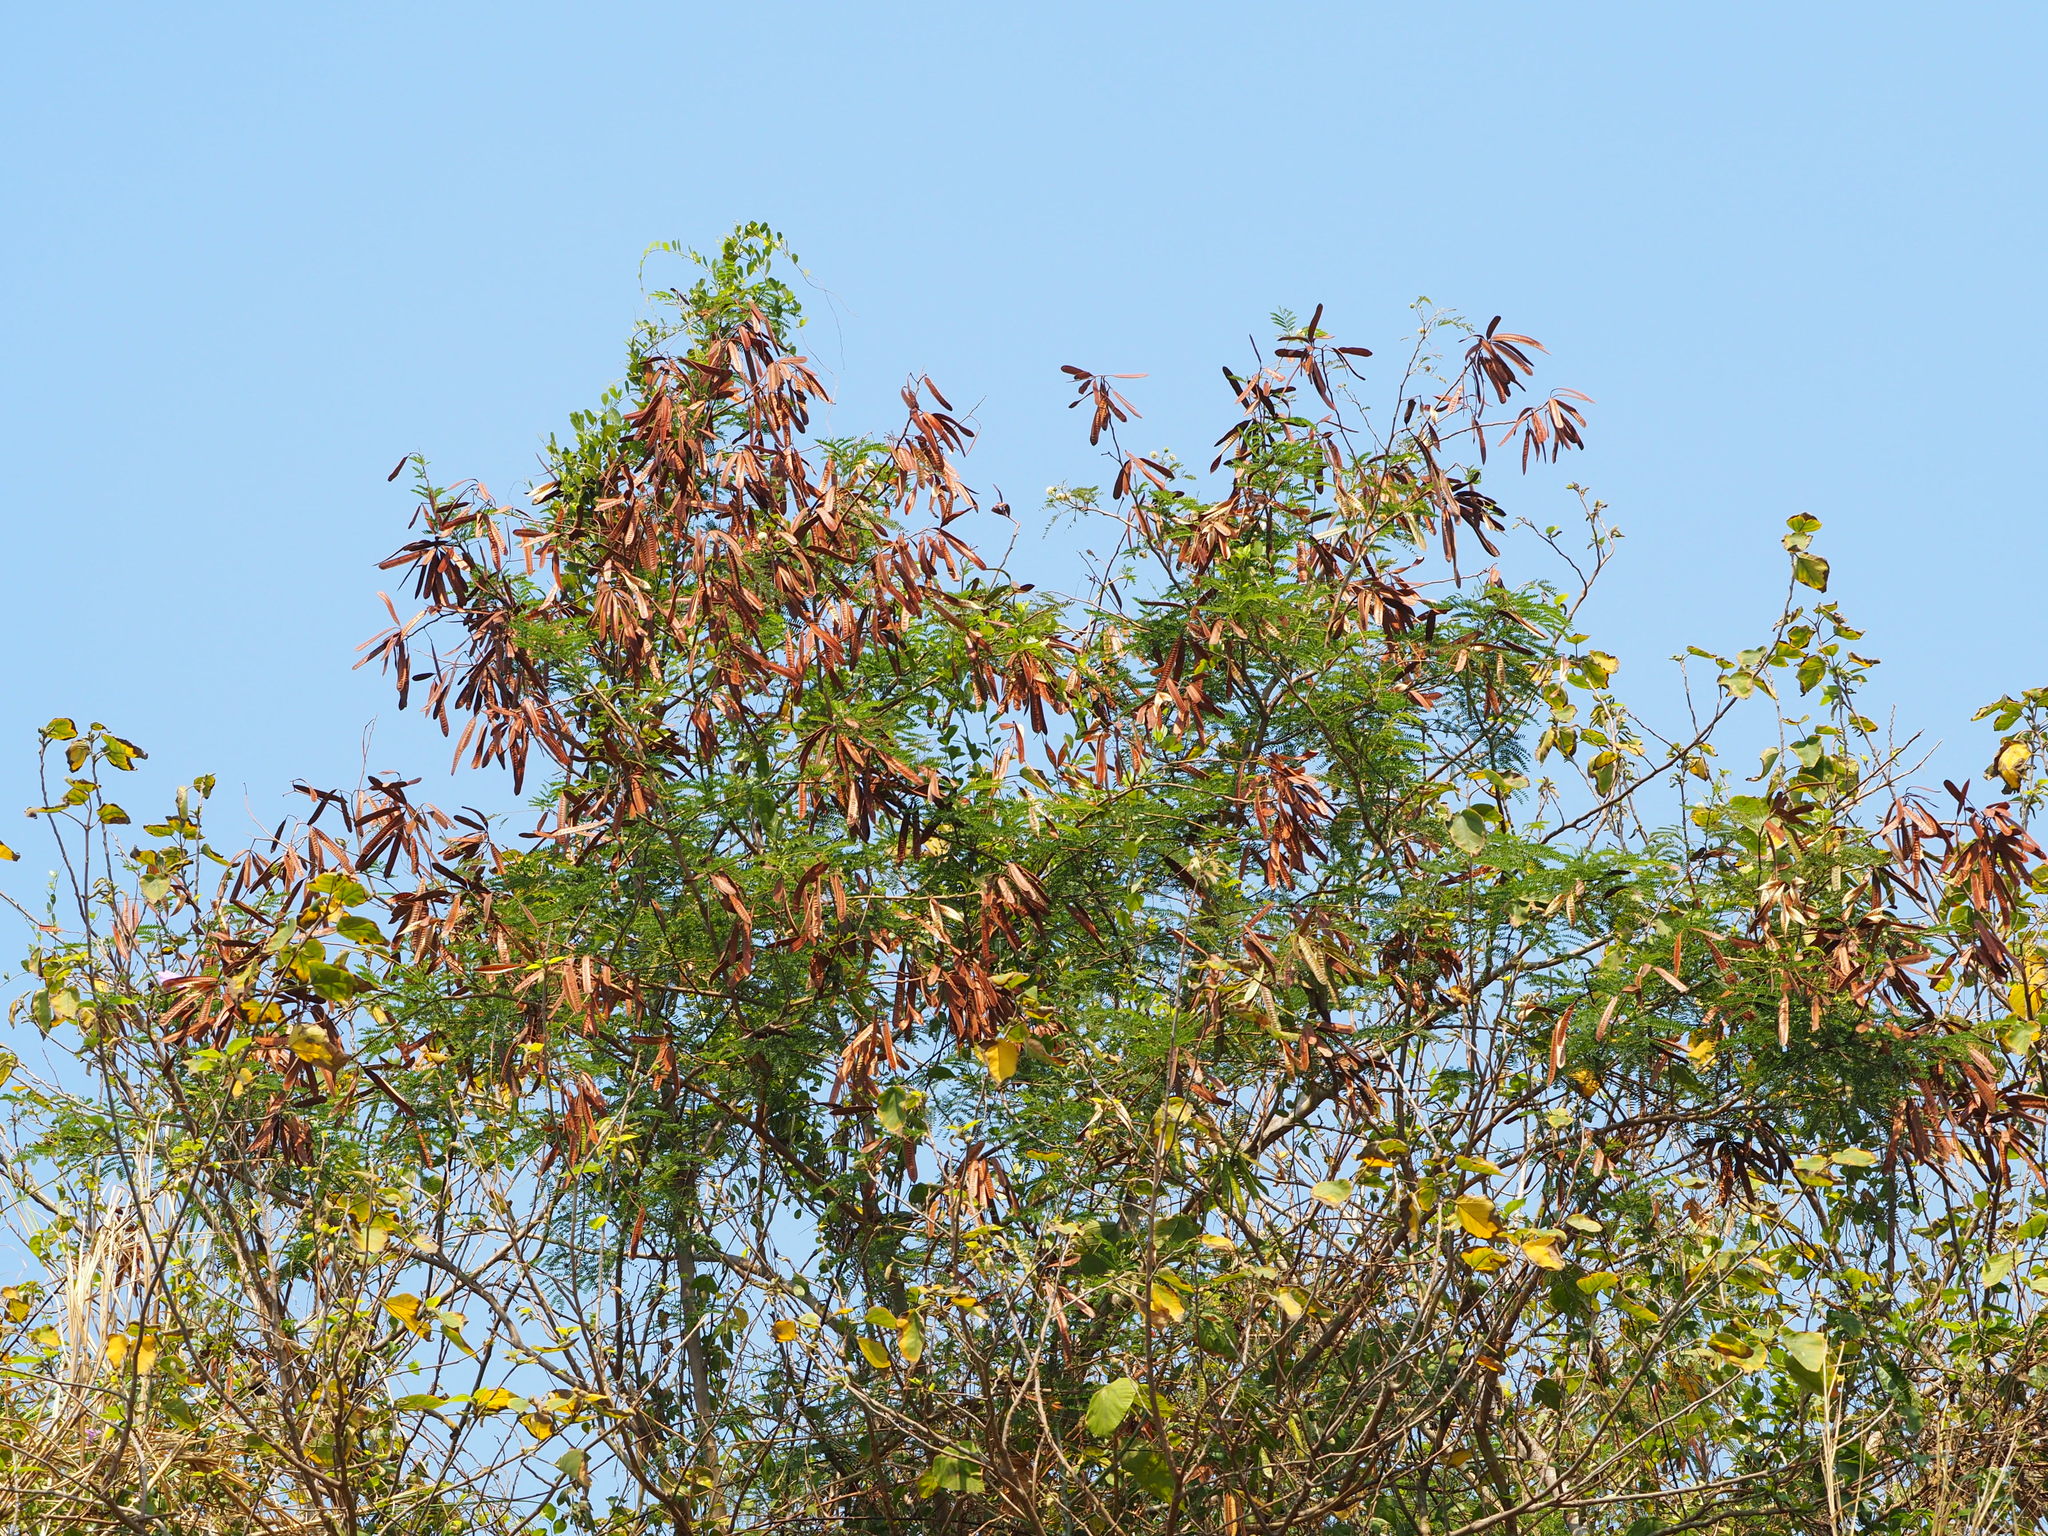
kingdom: Plantae
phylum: Tracheophyta
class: Magnoliopsida
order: Fabales
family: Fabaceae
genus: Leucaena
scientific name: Leucaena leucocephala
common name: White leadtree
